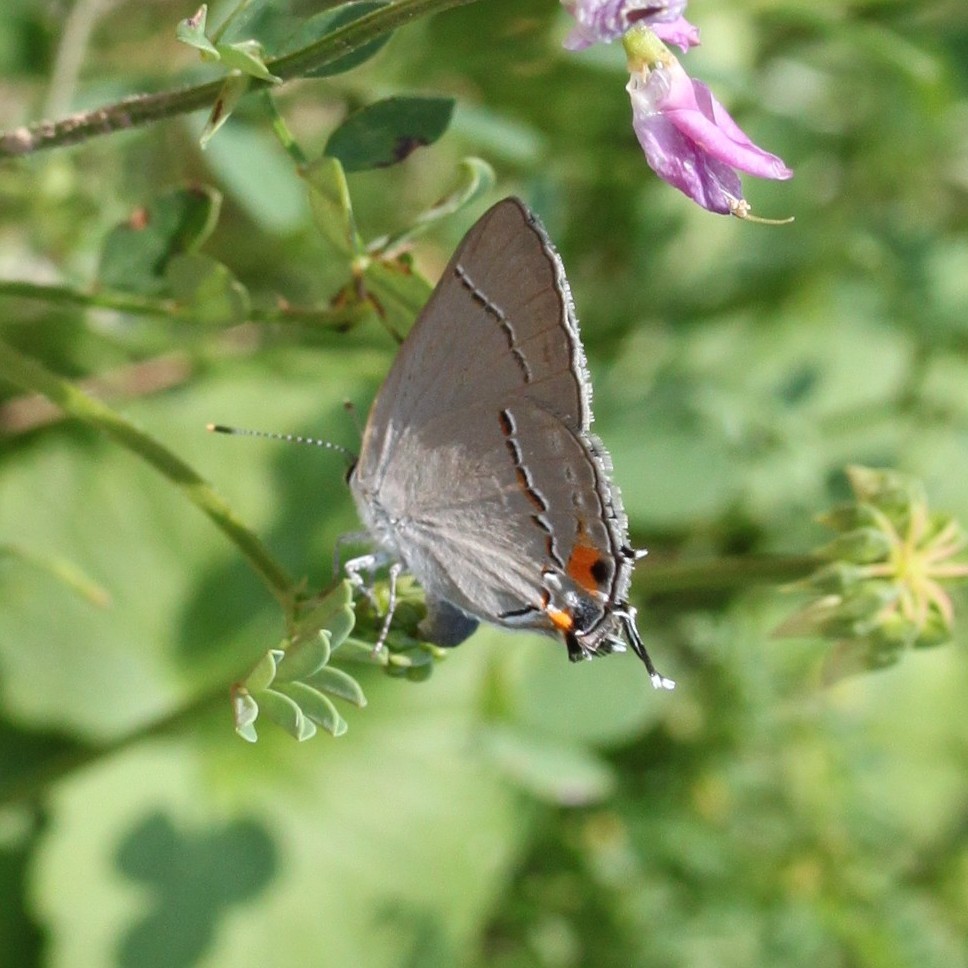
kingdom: Animalia
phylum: Arthropoda
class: Insecta
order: Lepidoptera
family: Lycaenidae
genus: Strymon
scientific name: Strymon melinus
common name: Gray hairstreak
